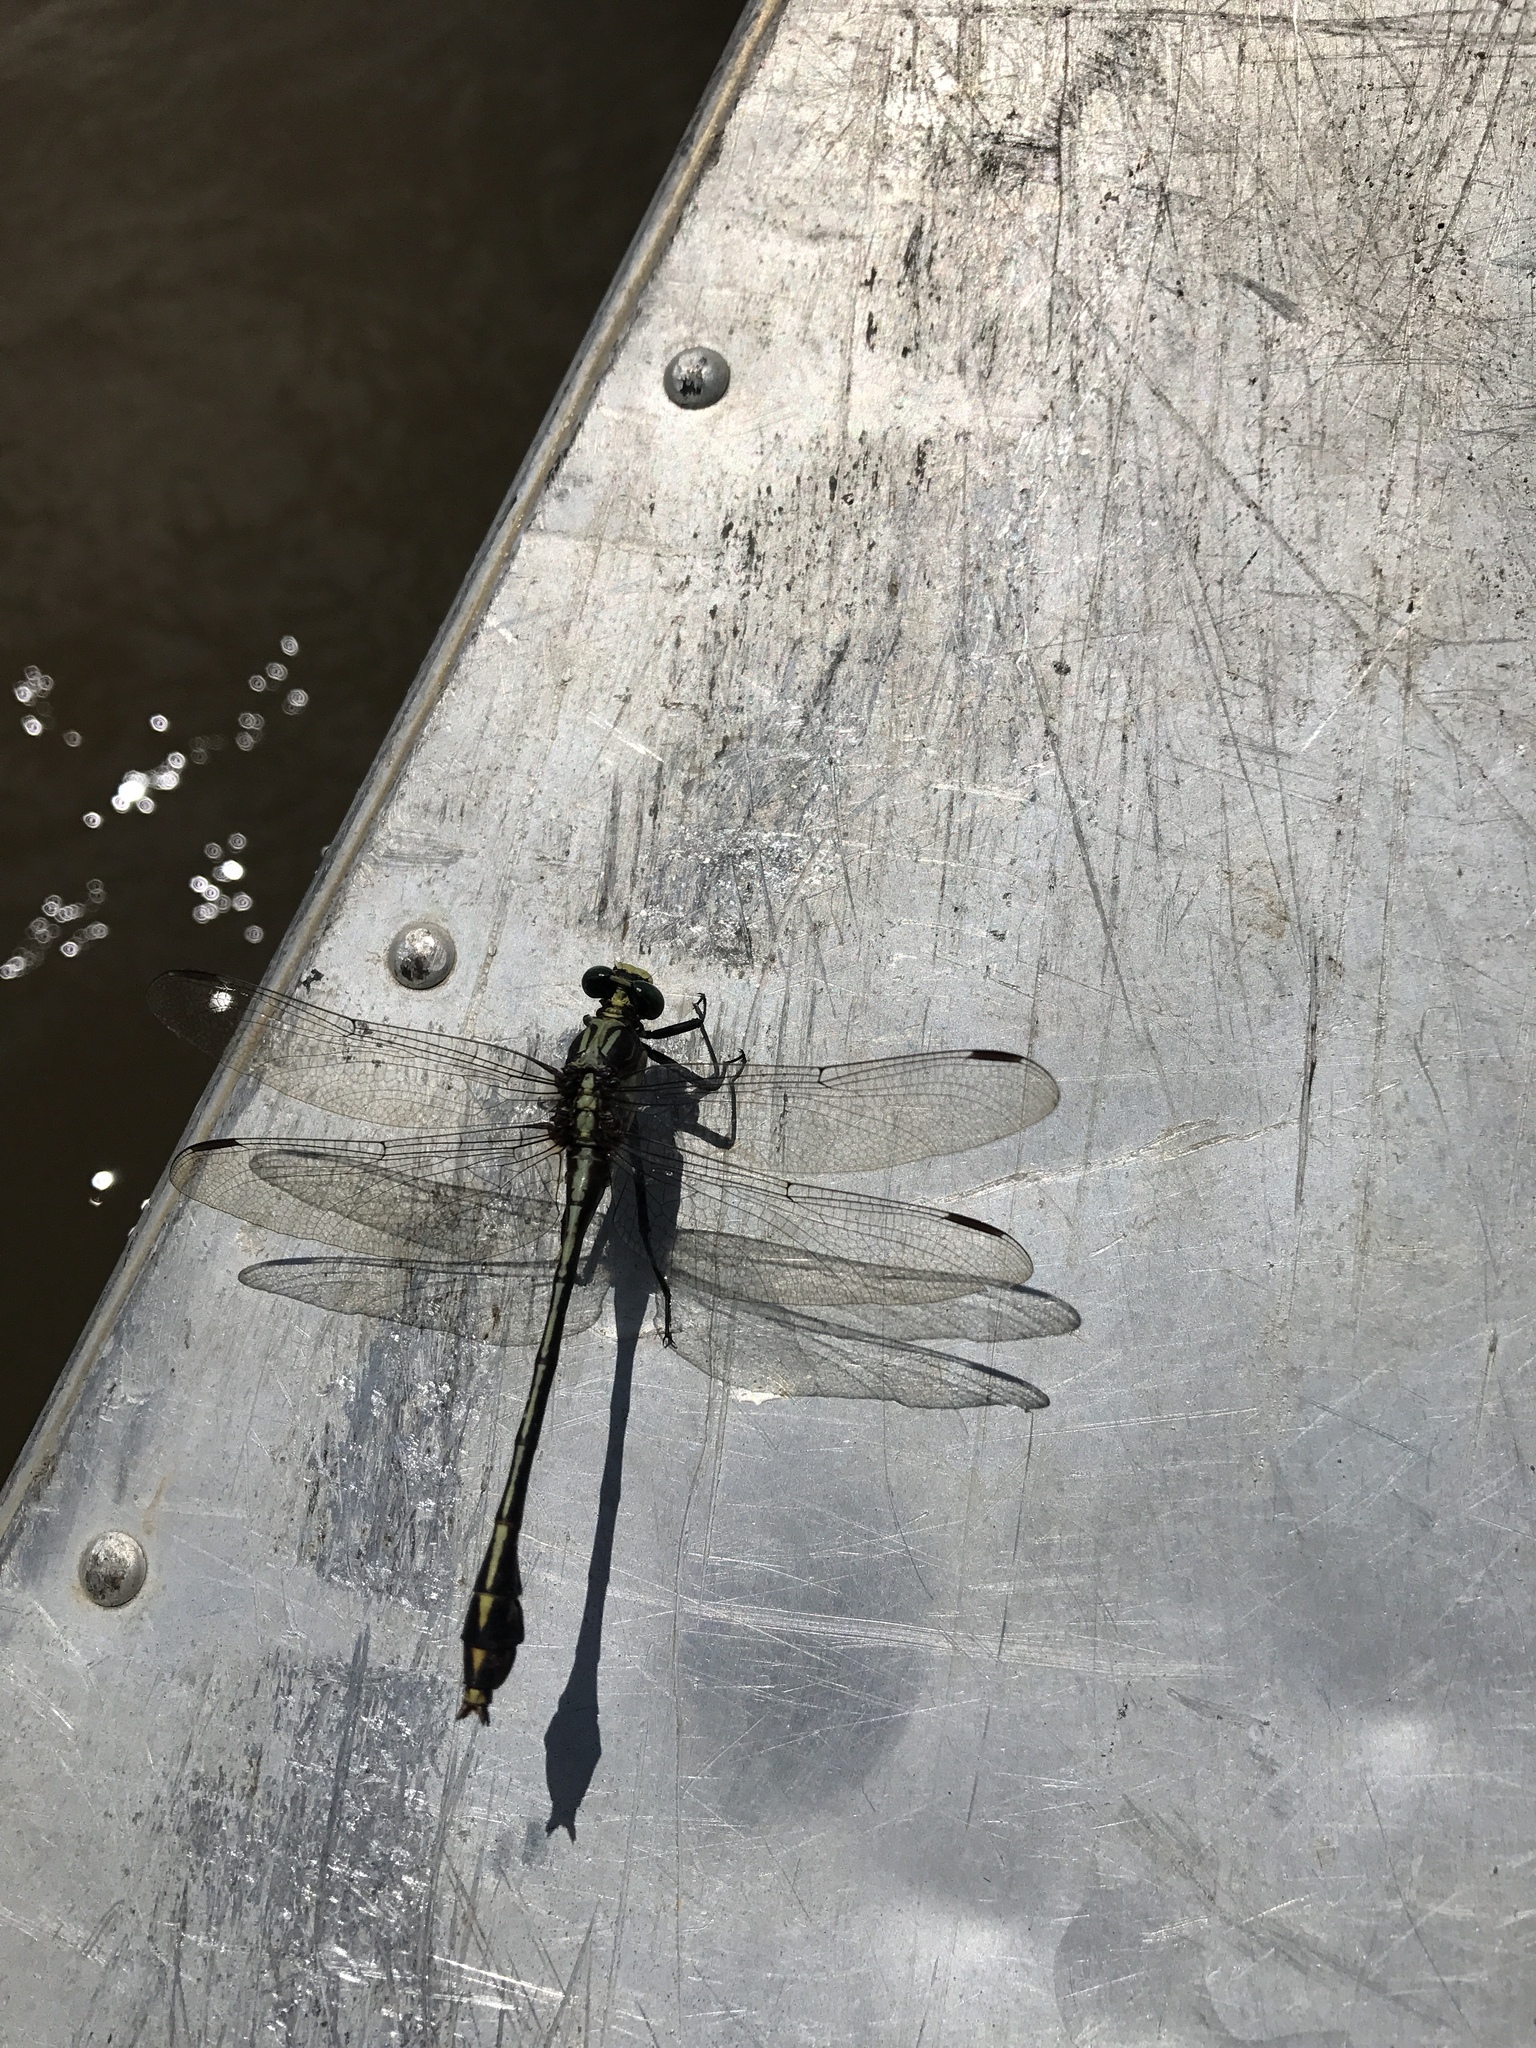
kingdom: Animalia
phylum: Arthropoda
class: Insecta
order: Odonata
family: Gomphidae
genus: Dromogomphus
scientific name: Dromogomphus spinosus
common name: Black-shouldered spinyleg
